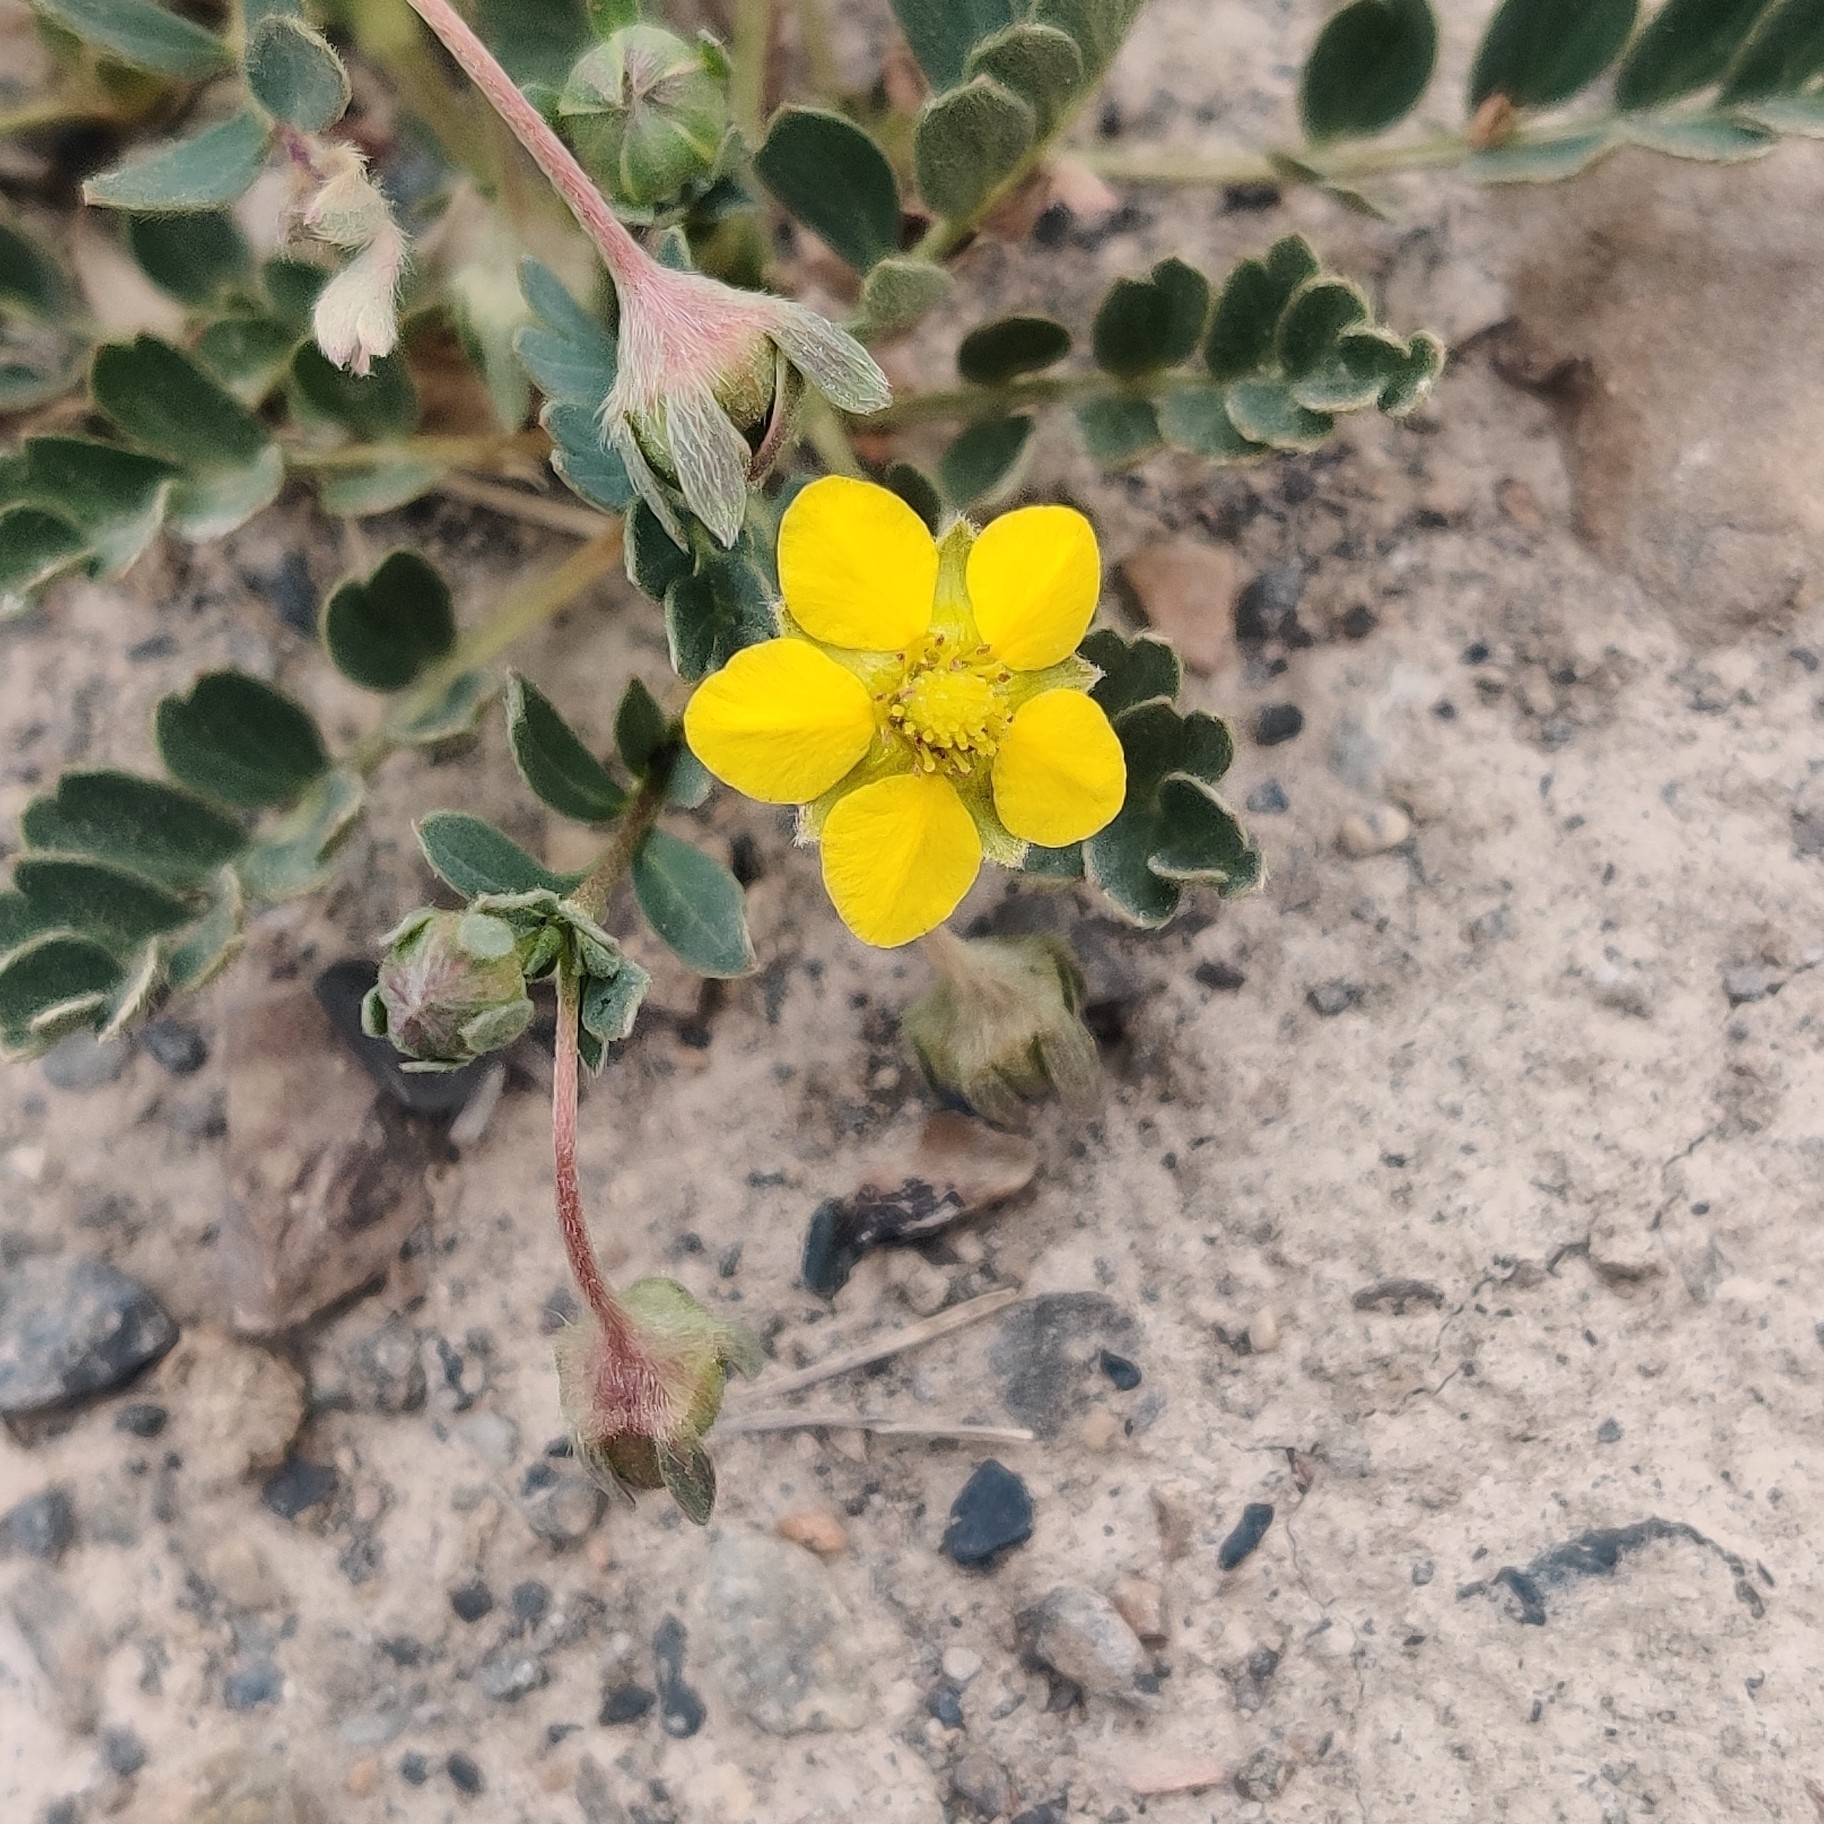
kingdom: Plantae
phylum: Tracheophyta
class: Magnoliopsida
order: Rosales
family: Rosaceae
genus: Sibbaldianthe
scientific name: Sibbaldianthe moorcroftii
